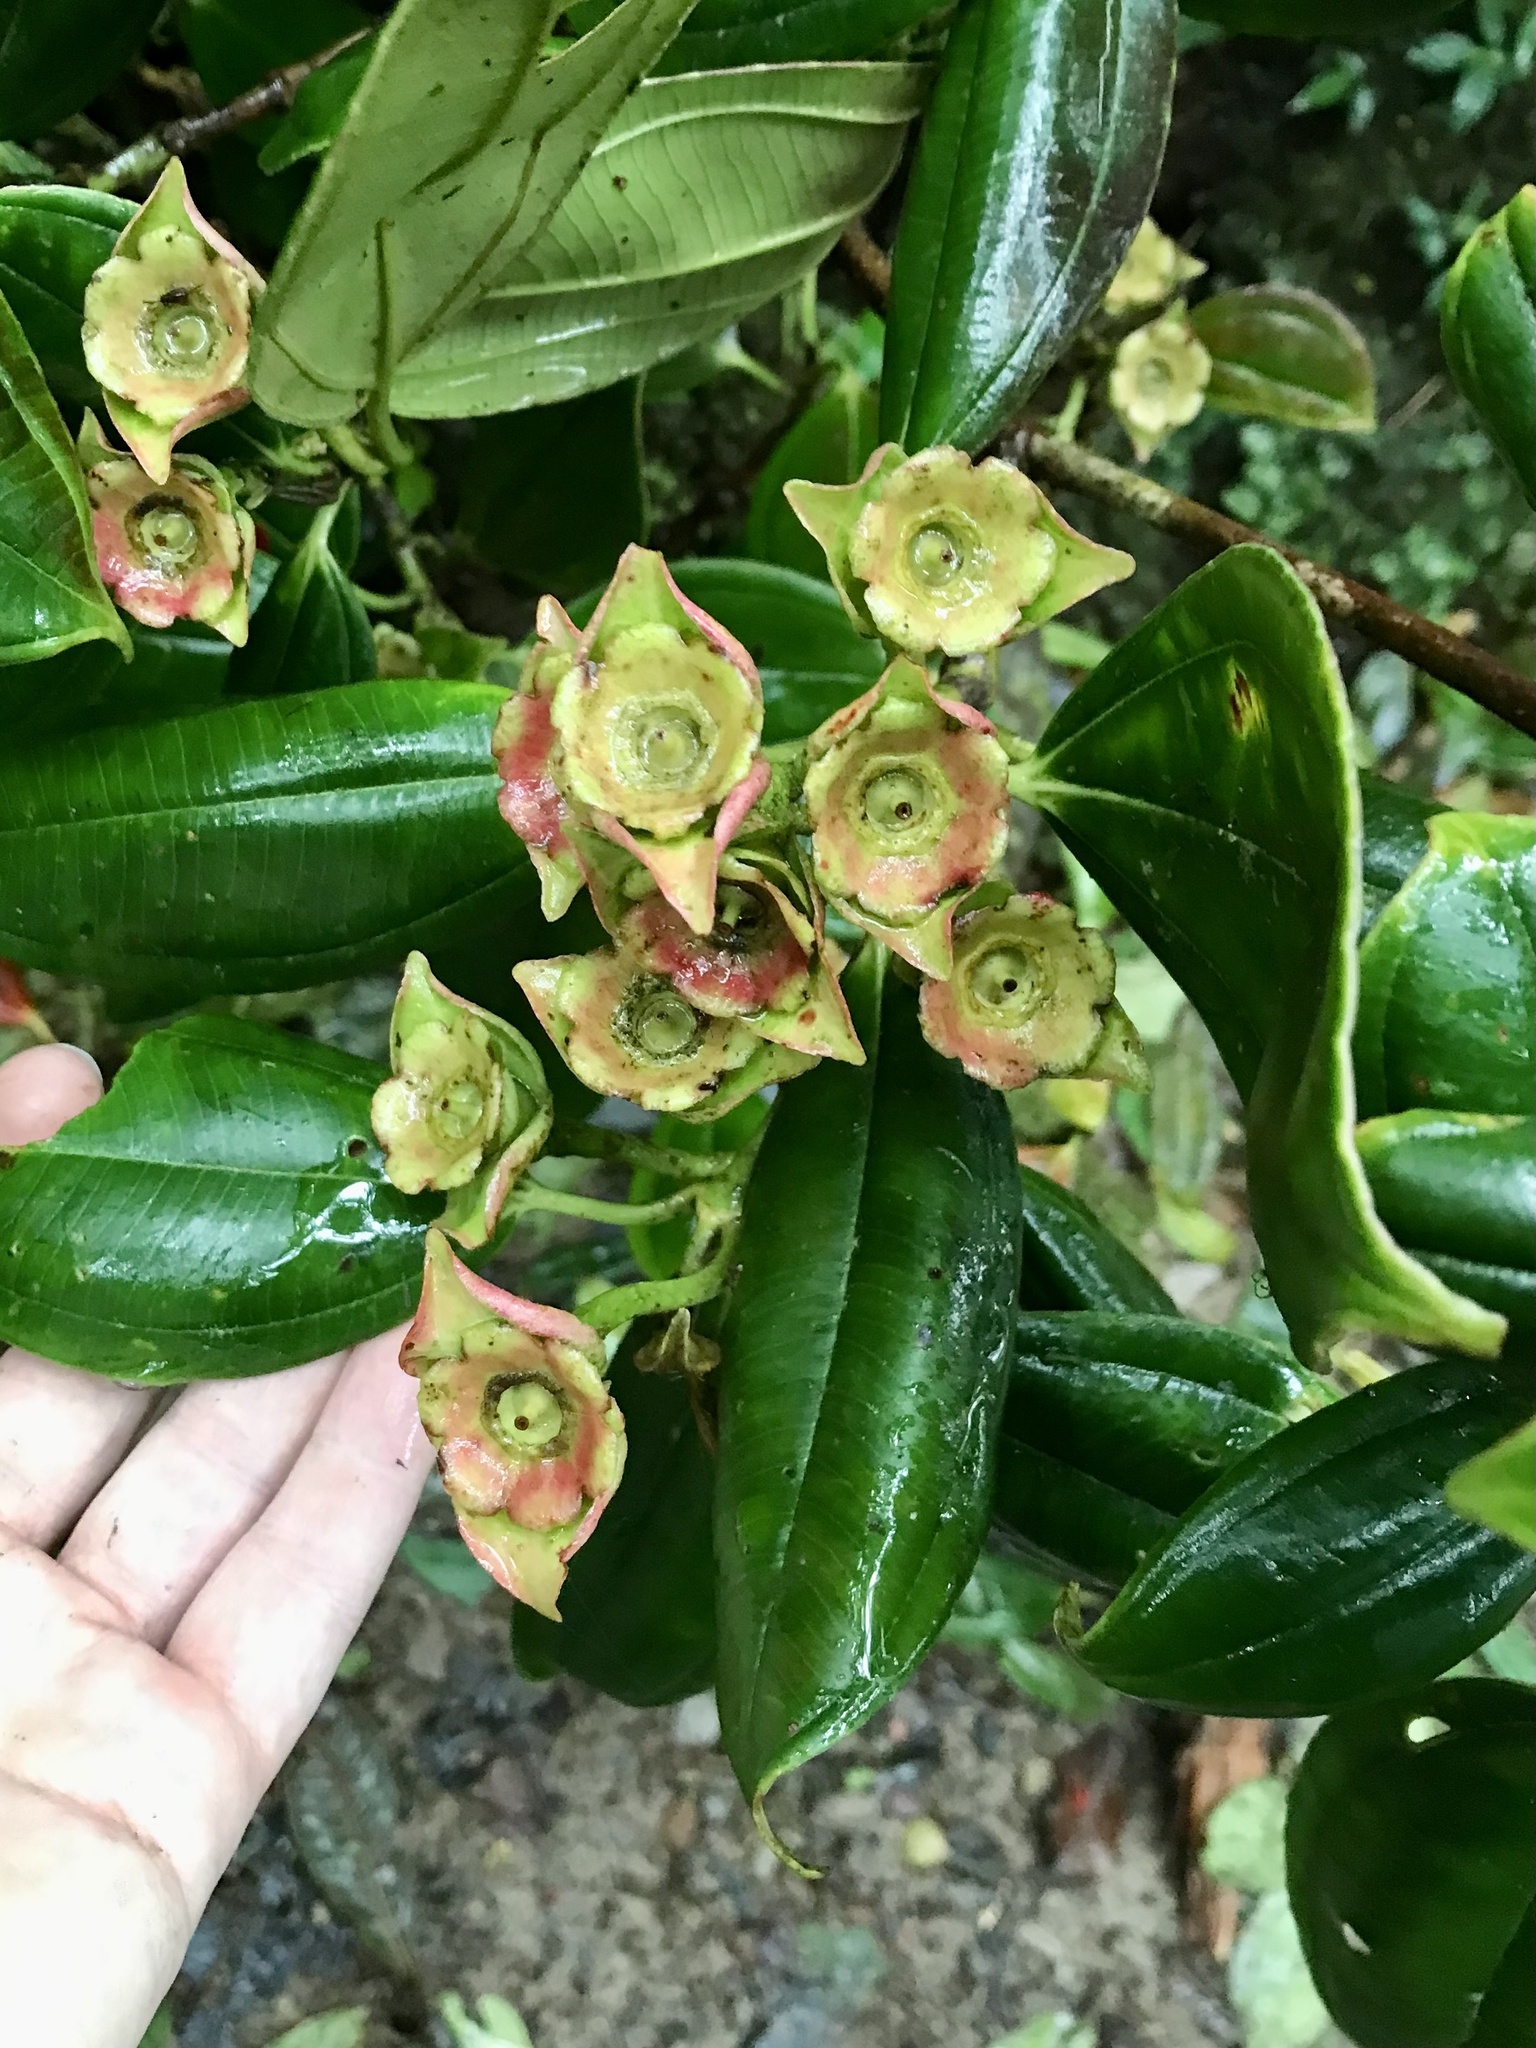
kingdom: Plantae
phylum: Tracheophyta
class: Magnoliopsida
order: Myrtales
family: Melastomataceae
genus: Blakea
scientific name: Blakea grandiflora
